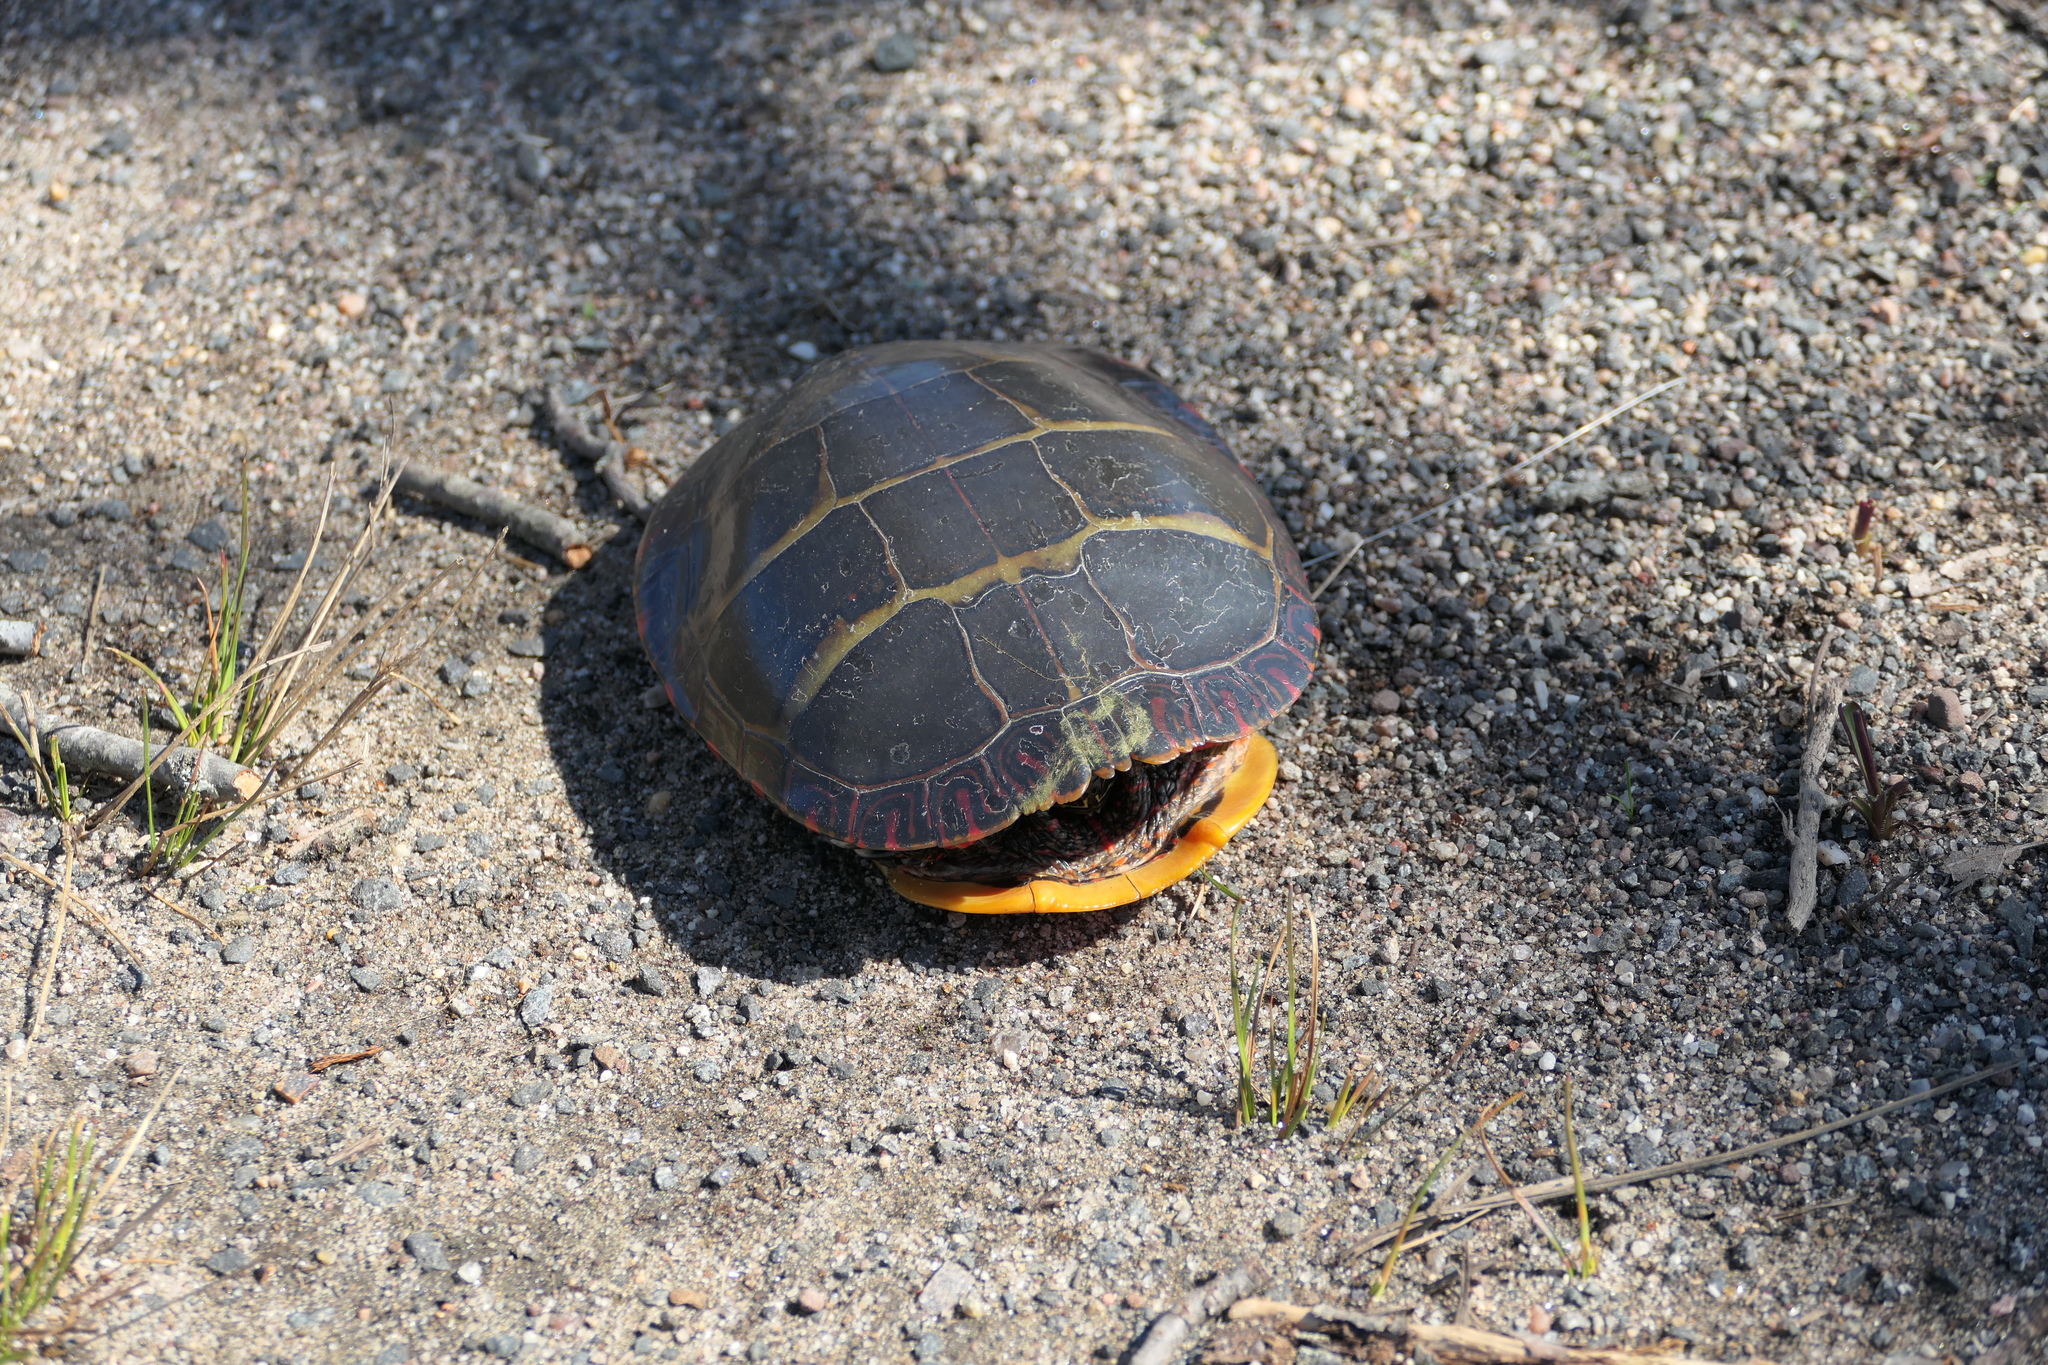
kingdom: Animalia
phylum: Chordata
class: Testudines
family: Emydidae
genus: Chrysemys
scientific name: Chrysemys picta
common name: Painted turtle
